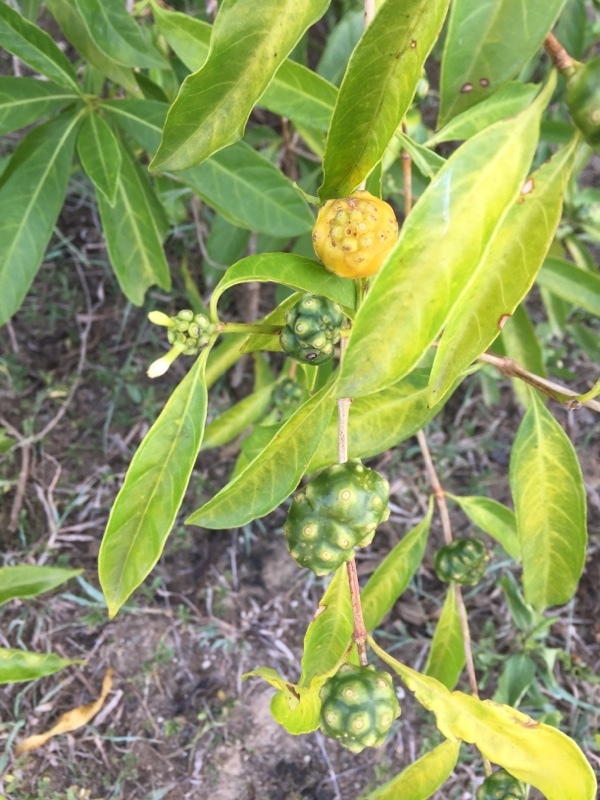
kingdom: Plantae
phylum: Tracheophyta
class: Magnoliopsida
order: Gentianales
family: Rubiaceae
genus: Morinda
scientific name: Morinda royoc
